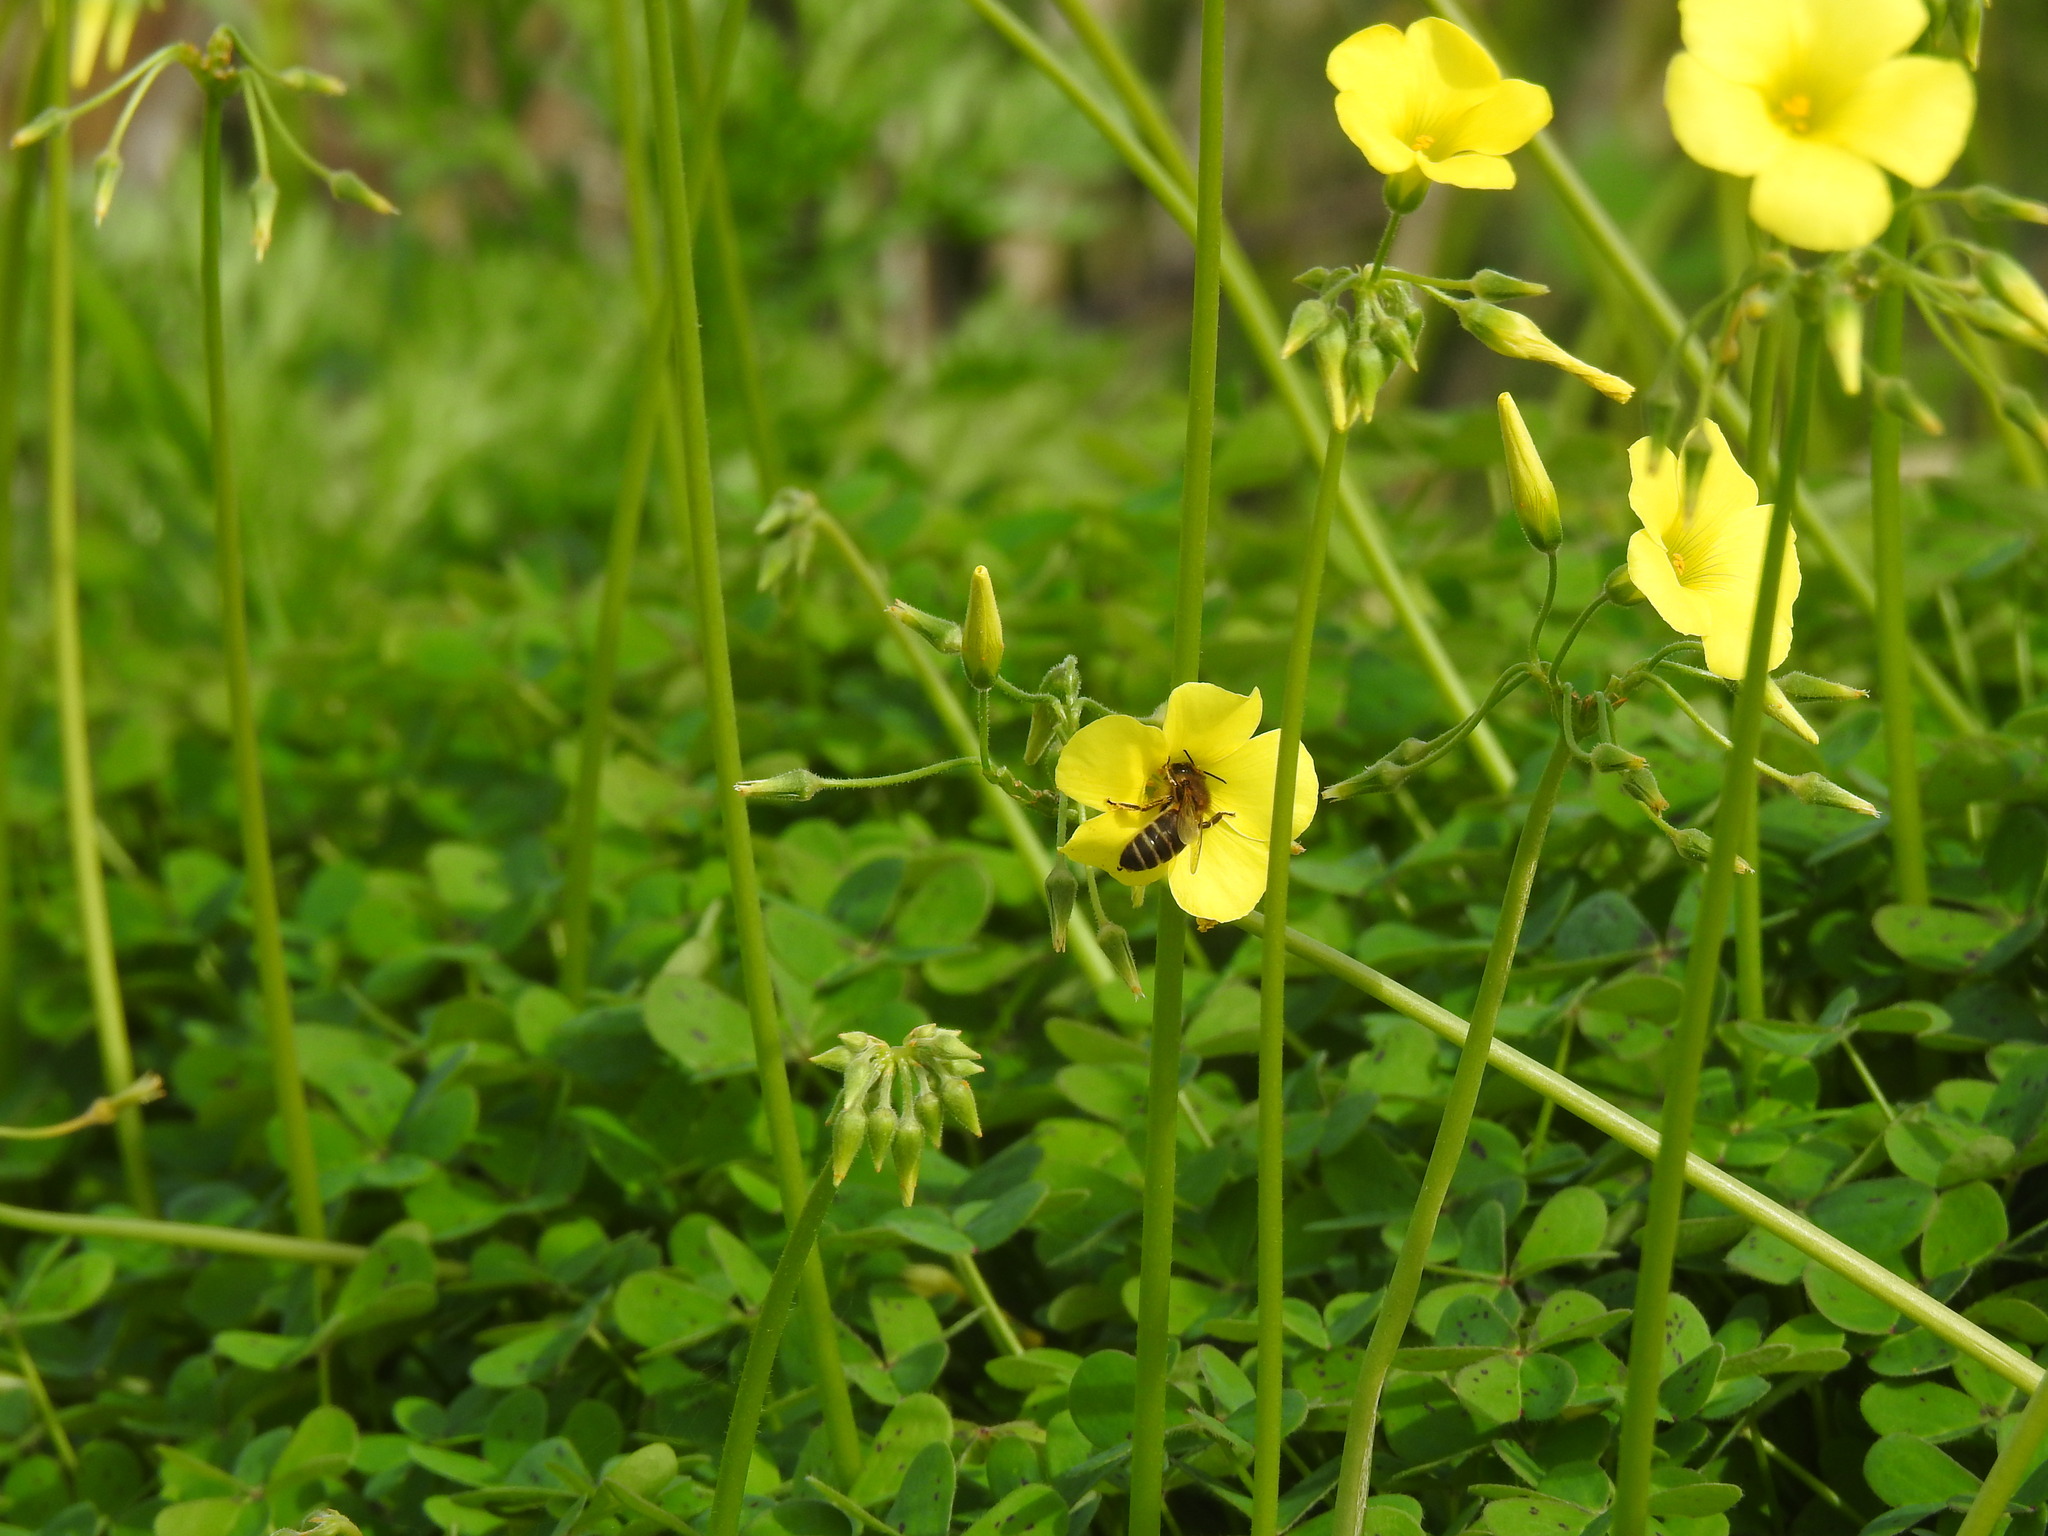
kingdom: Animalia
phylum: Arthropoda
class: Insecta
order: Hymenoptera
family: Apidae
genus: Apis
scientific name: Apis mellifera
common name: Honey bee
